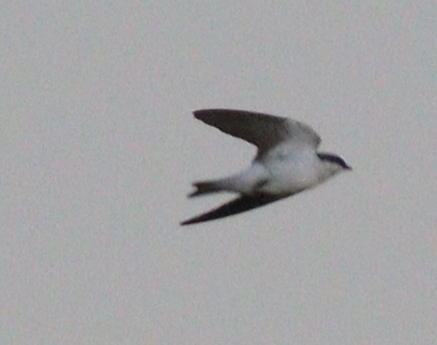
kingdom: Animalia
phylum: Chordata
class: Aves
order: Passeriformes
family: Hirundinidae
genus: Tachycineta
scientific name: Tachycineta albiventer
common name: White-winged swallow
